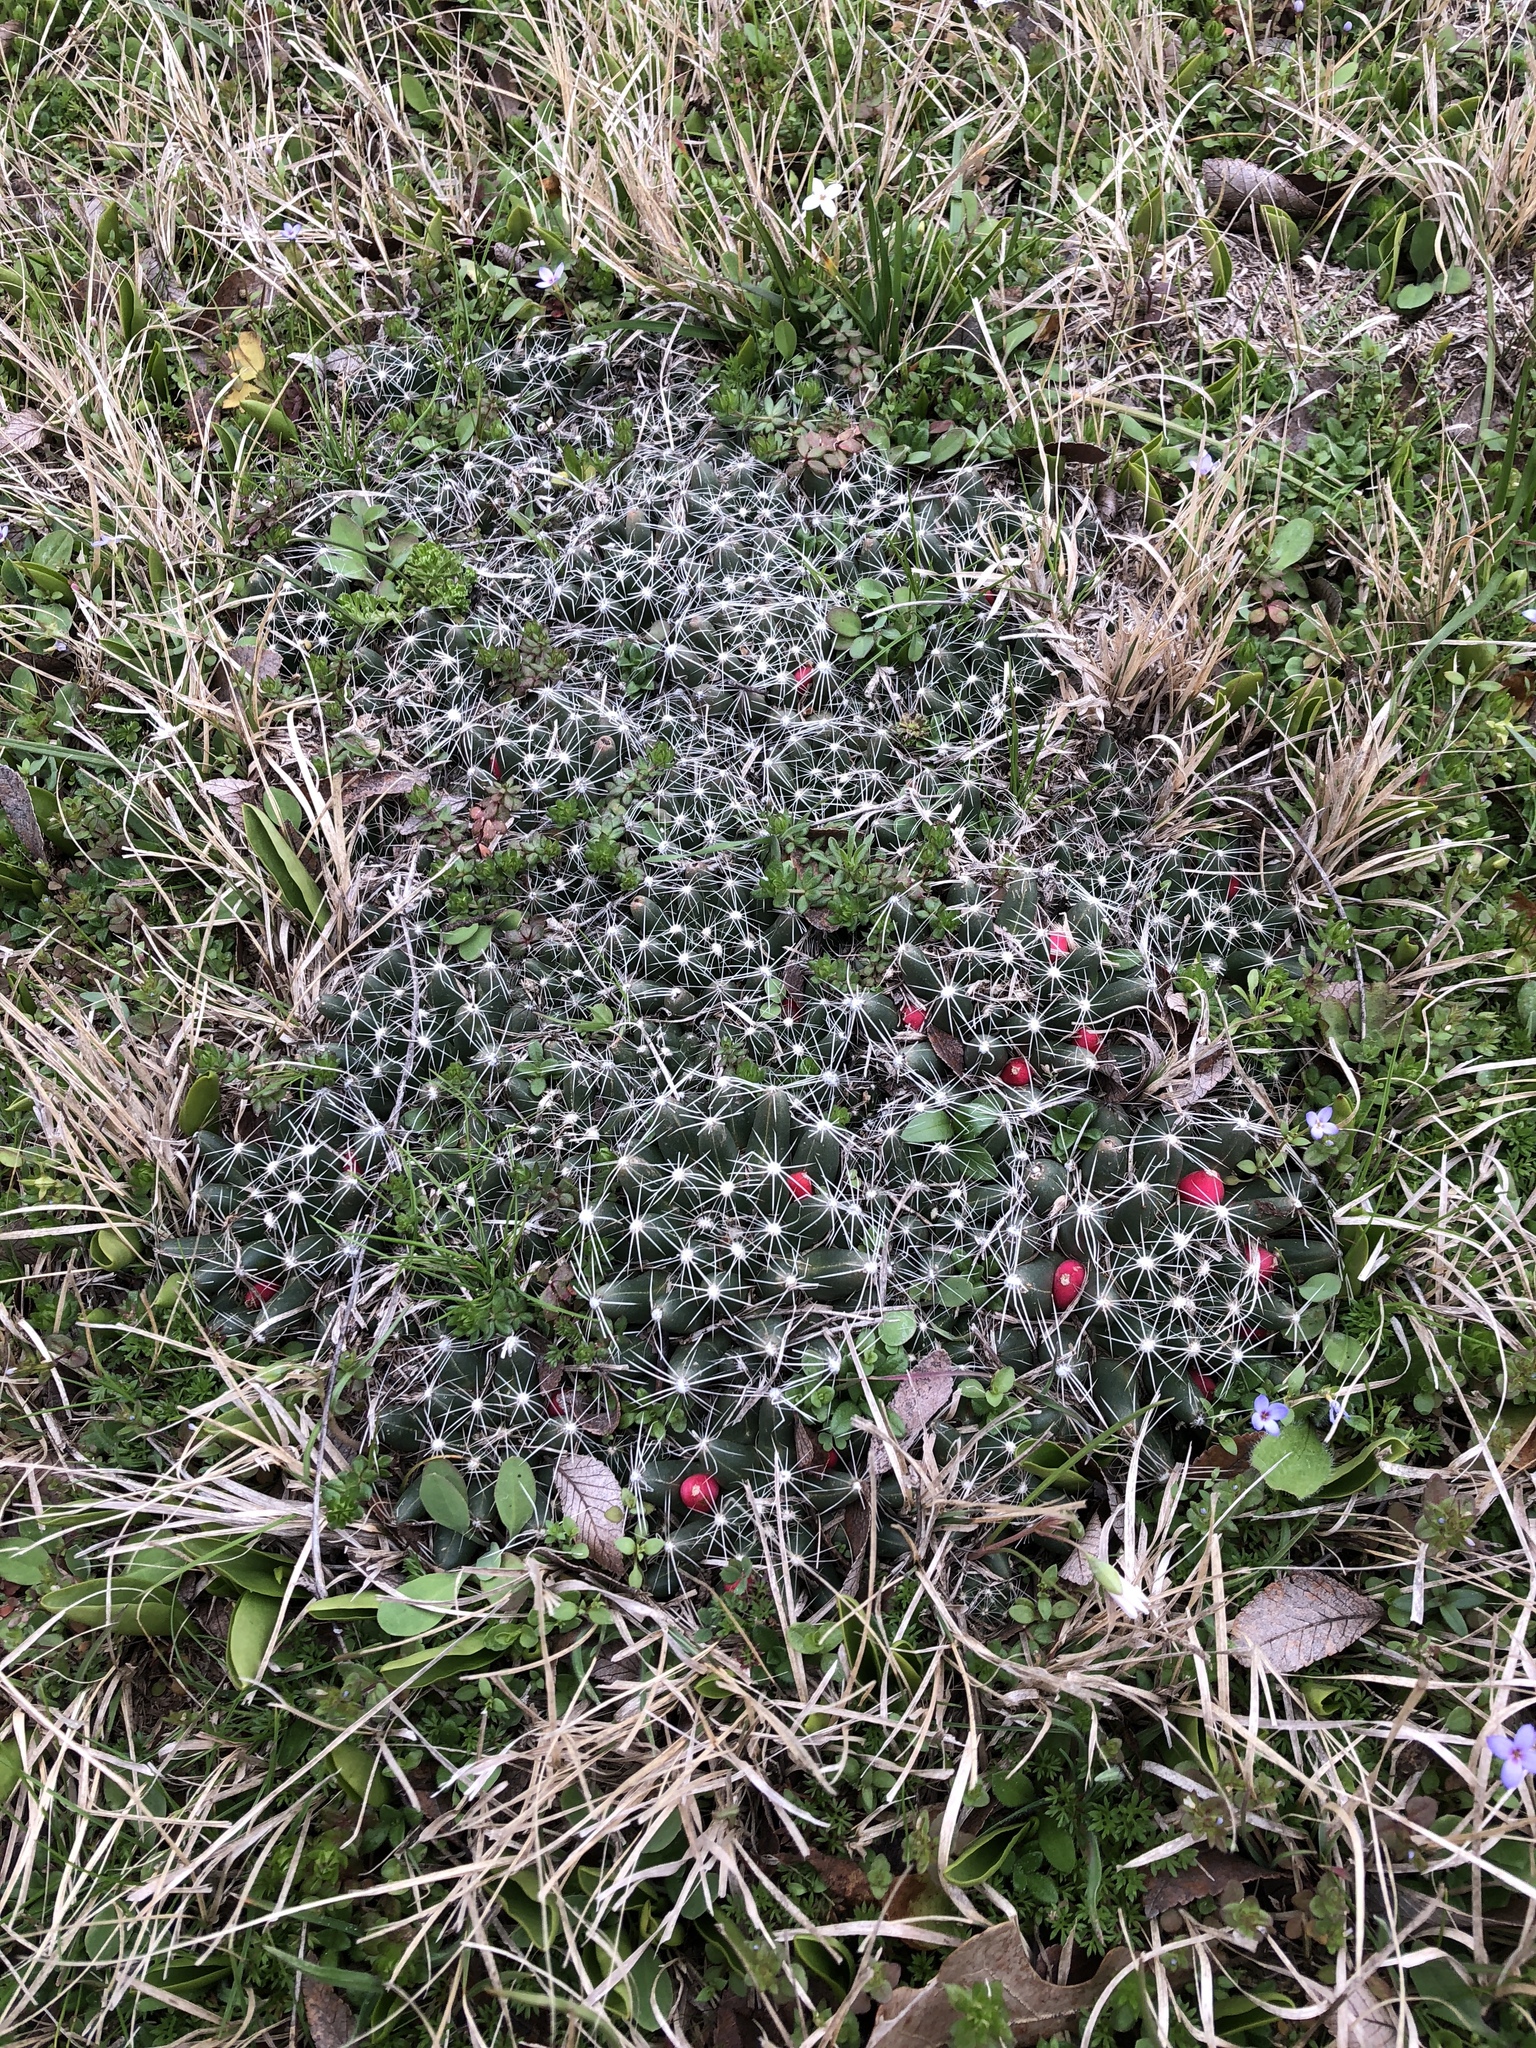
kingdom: Plantae
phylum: Tracheophyta
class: Magnoliopsida
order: Caryophyllales
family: Cactaceae
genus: Pelecyphora
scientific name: Pelecyphora missouriensis
